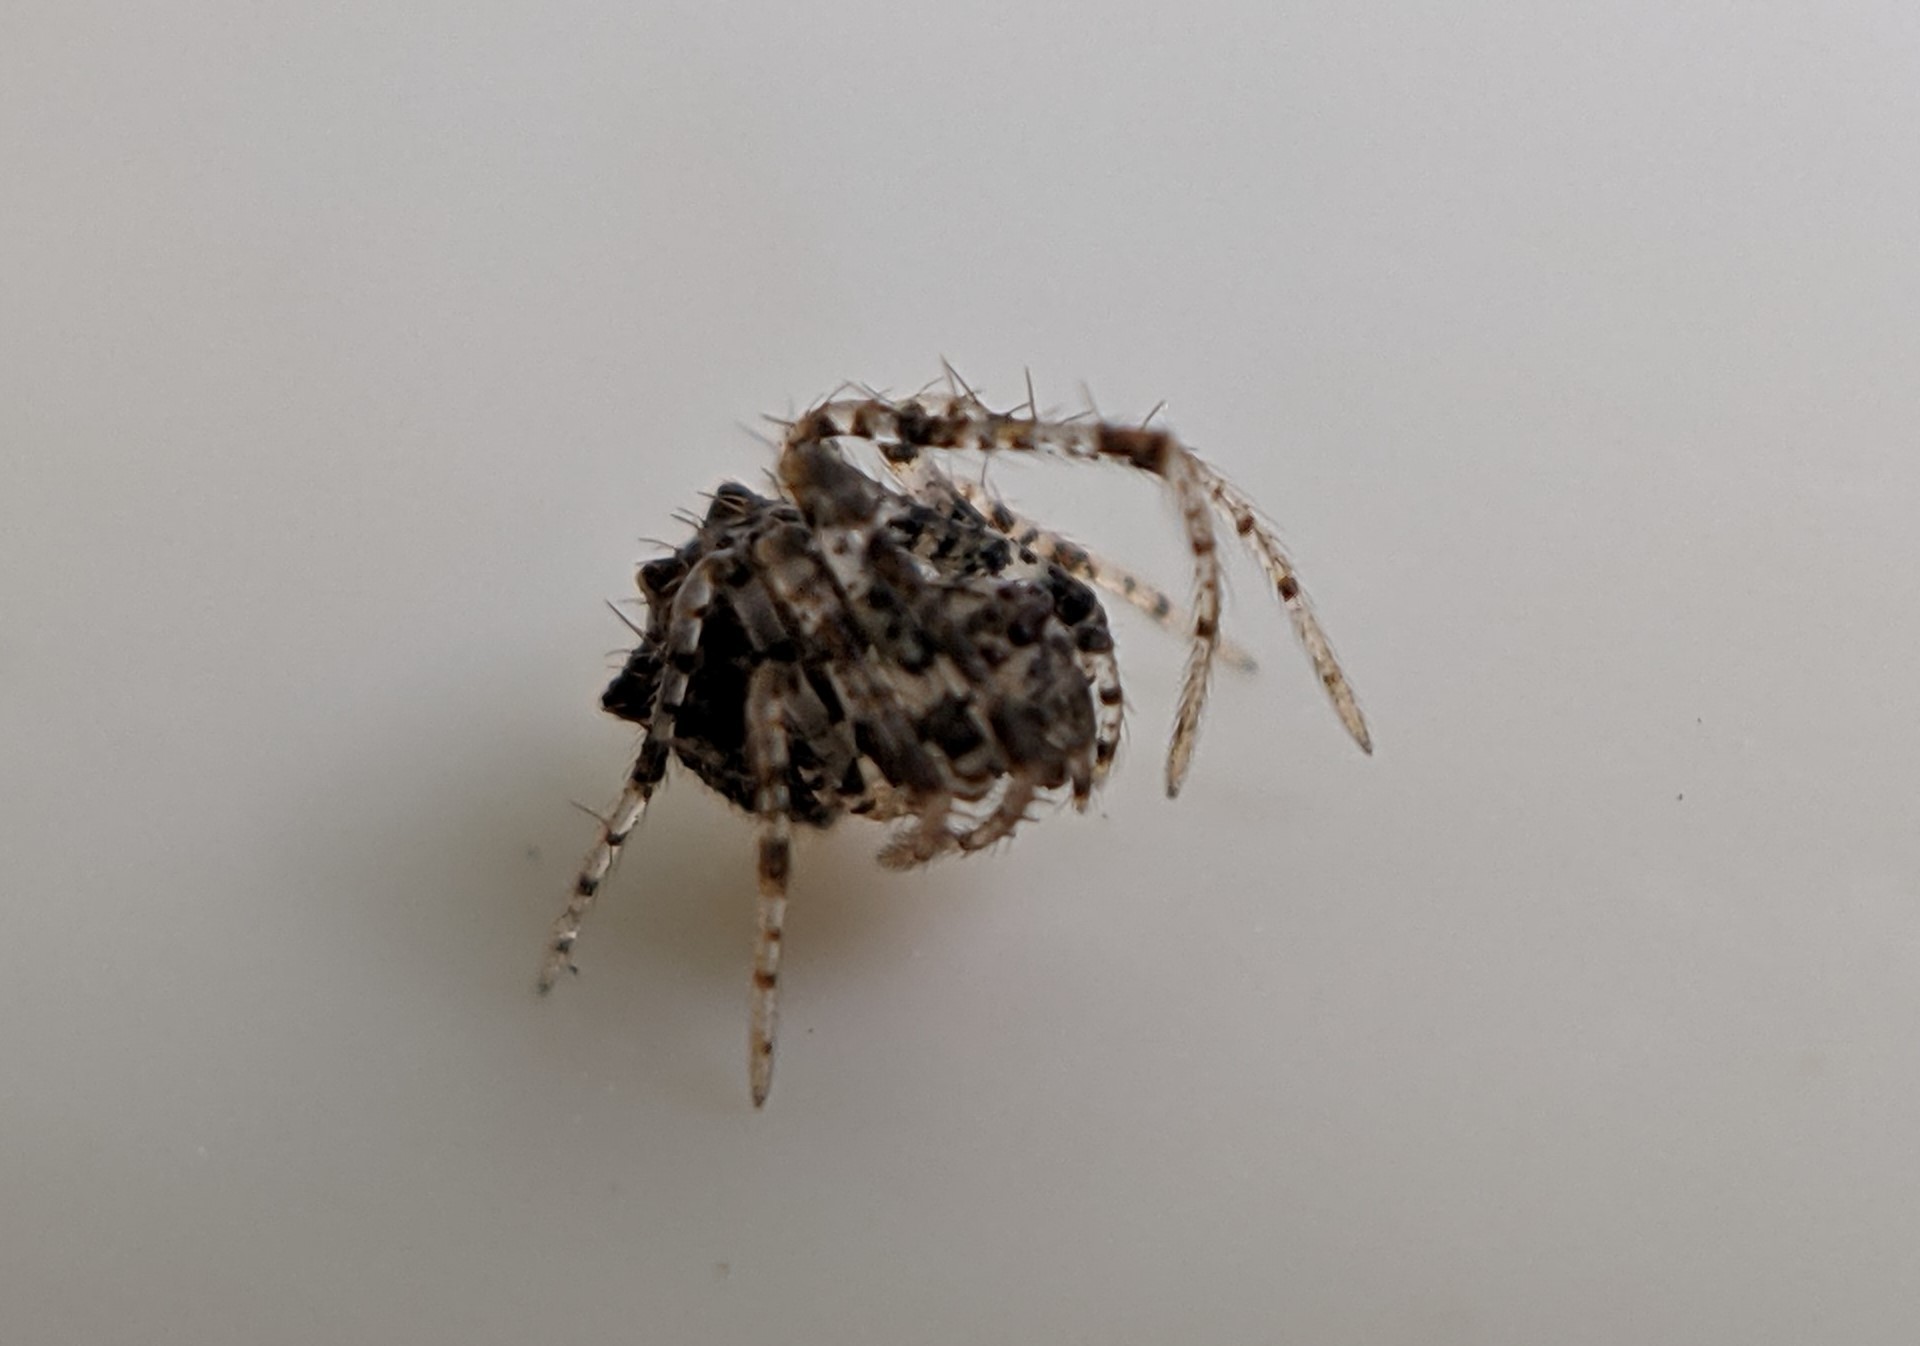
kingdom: Animalia
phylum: Arthropoda
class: Arachnida
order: Araneae
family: Mimetidae
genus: Ero
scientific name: Ero aphana
